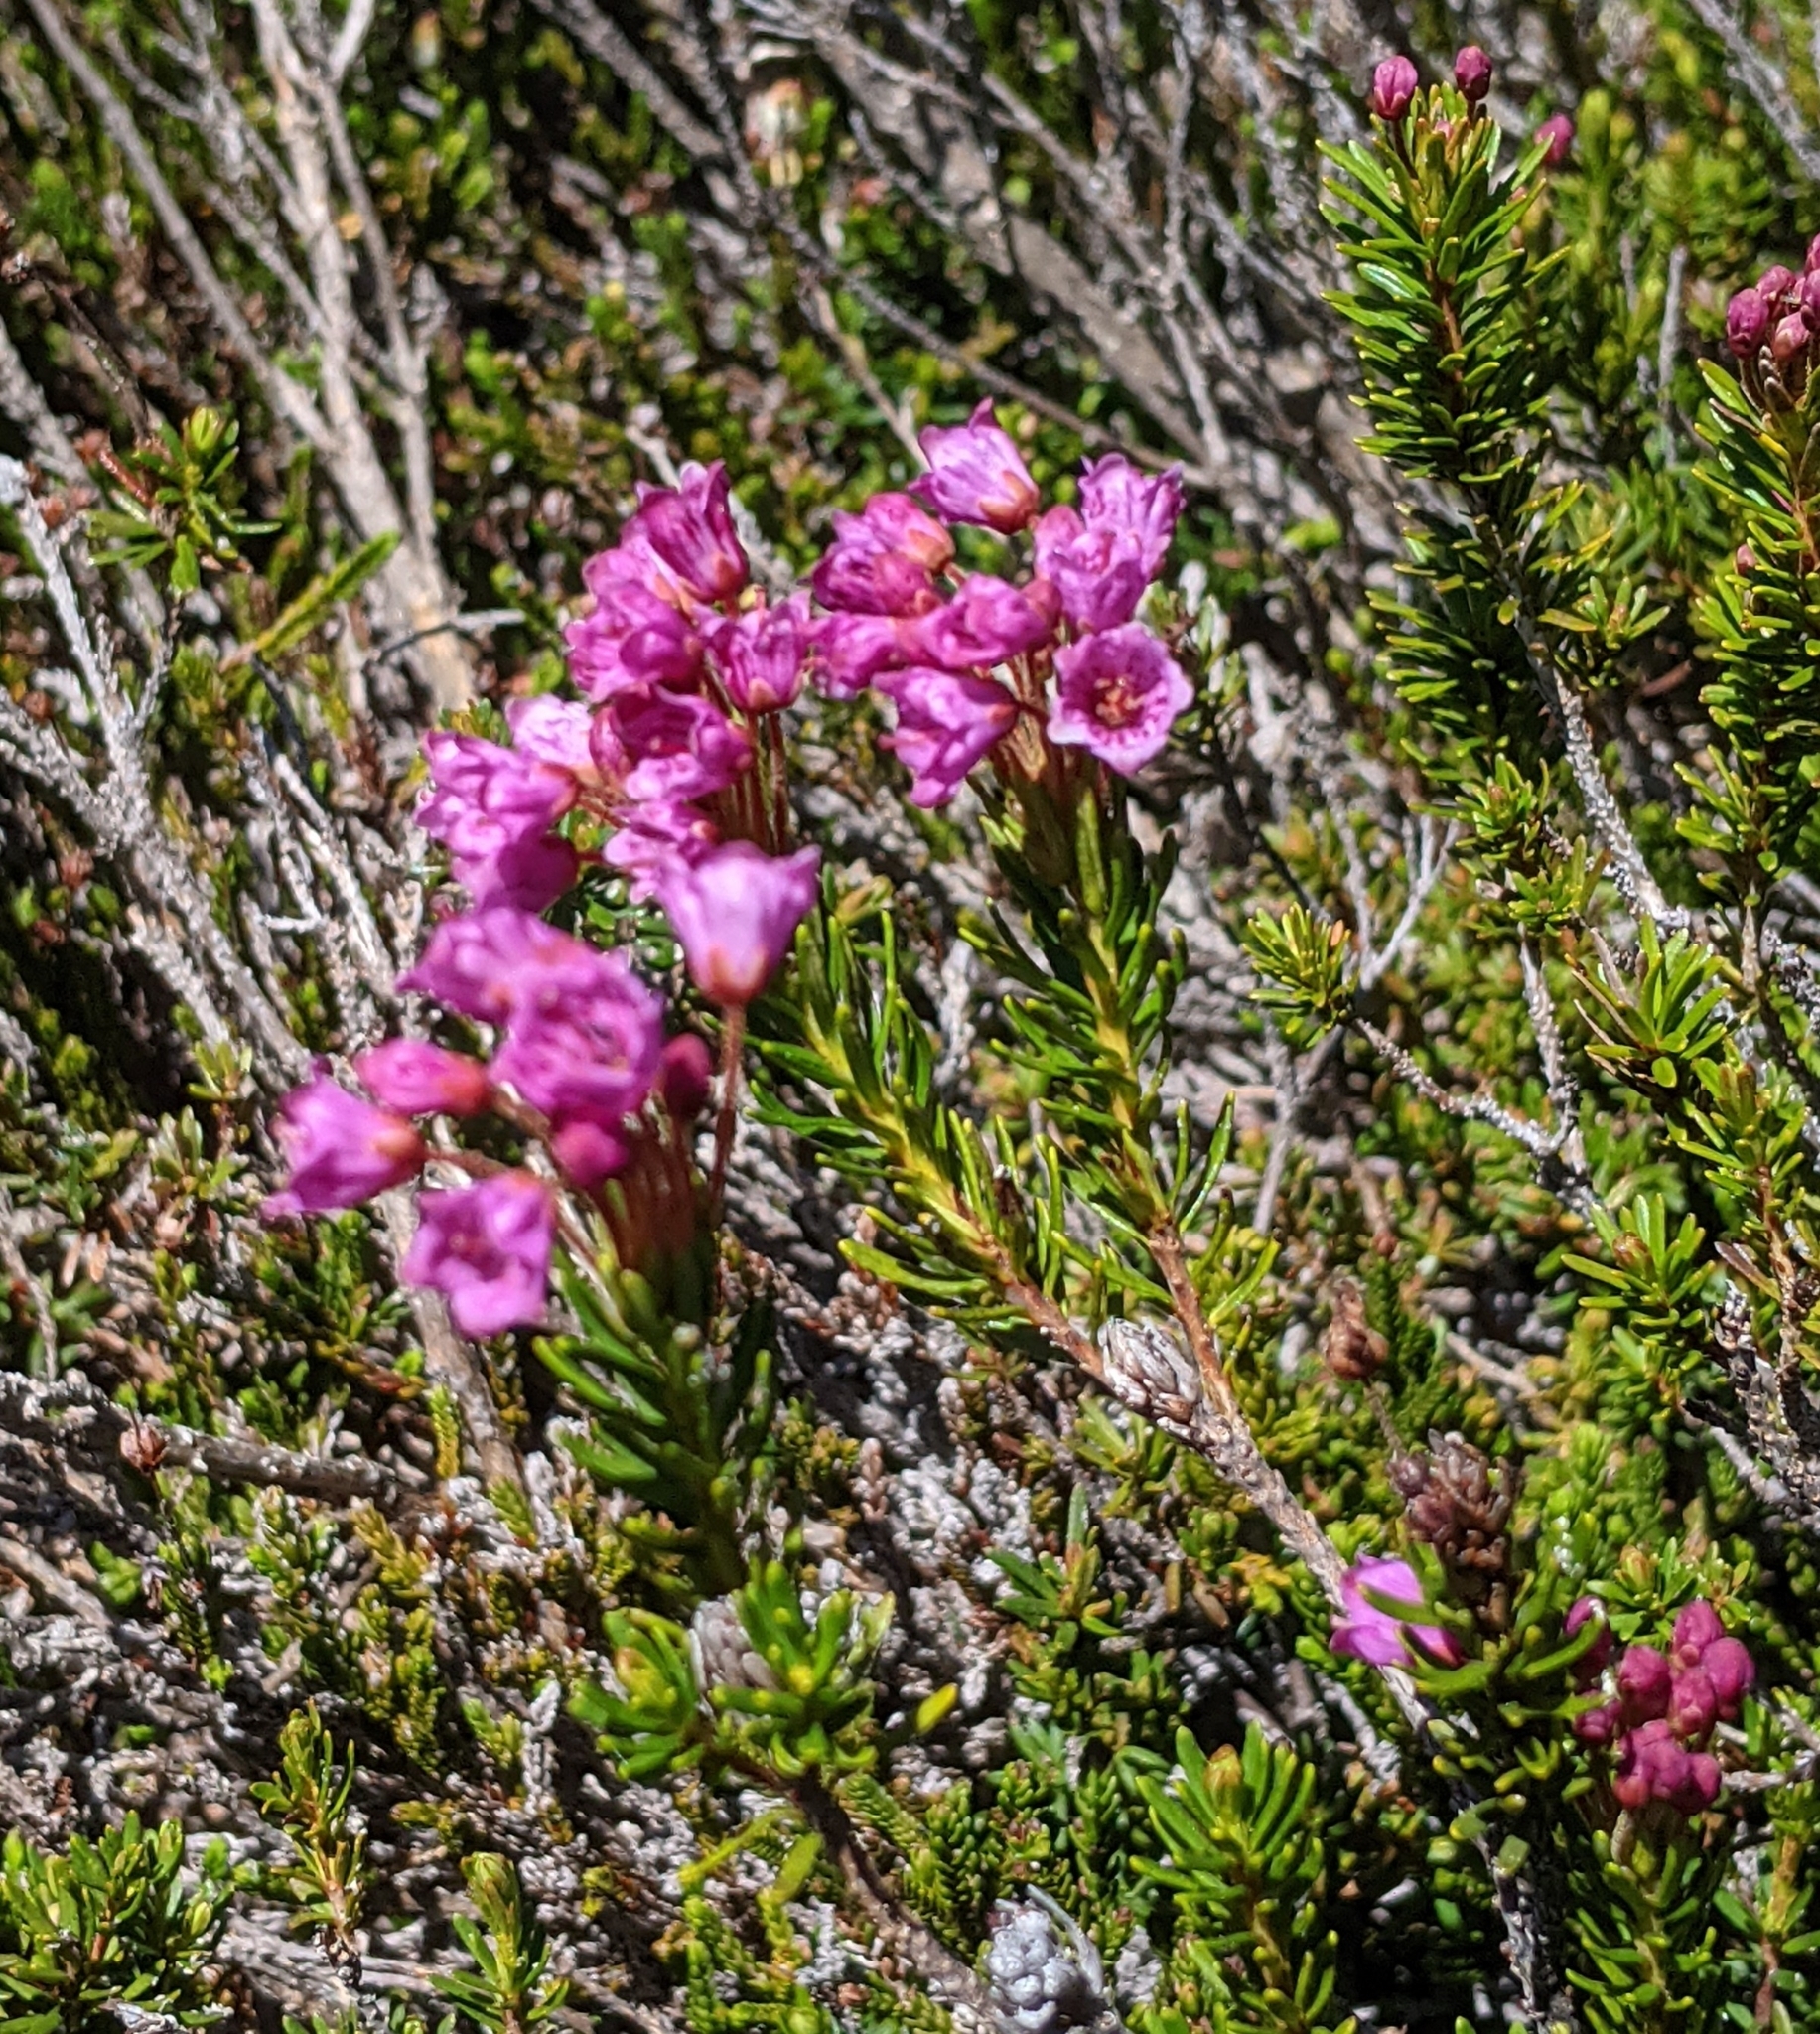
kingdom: Plantae
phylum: Tracheophyta
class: Magnoliopsida
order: Ericales
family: Ericaceae
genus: Phyllodoce
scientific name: Phyllodoce empetriformis
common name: Pink mountain heather
